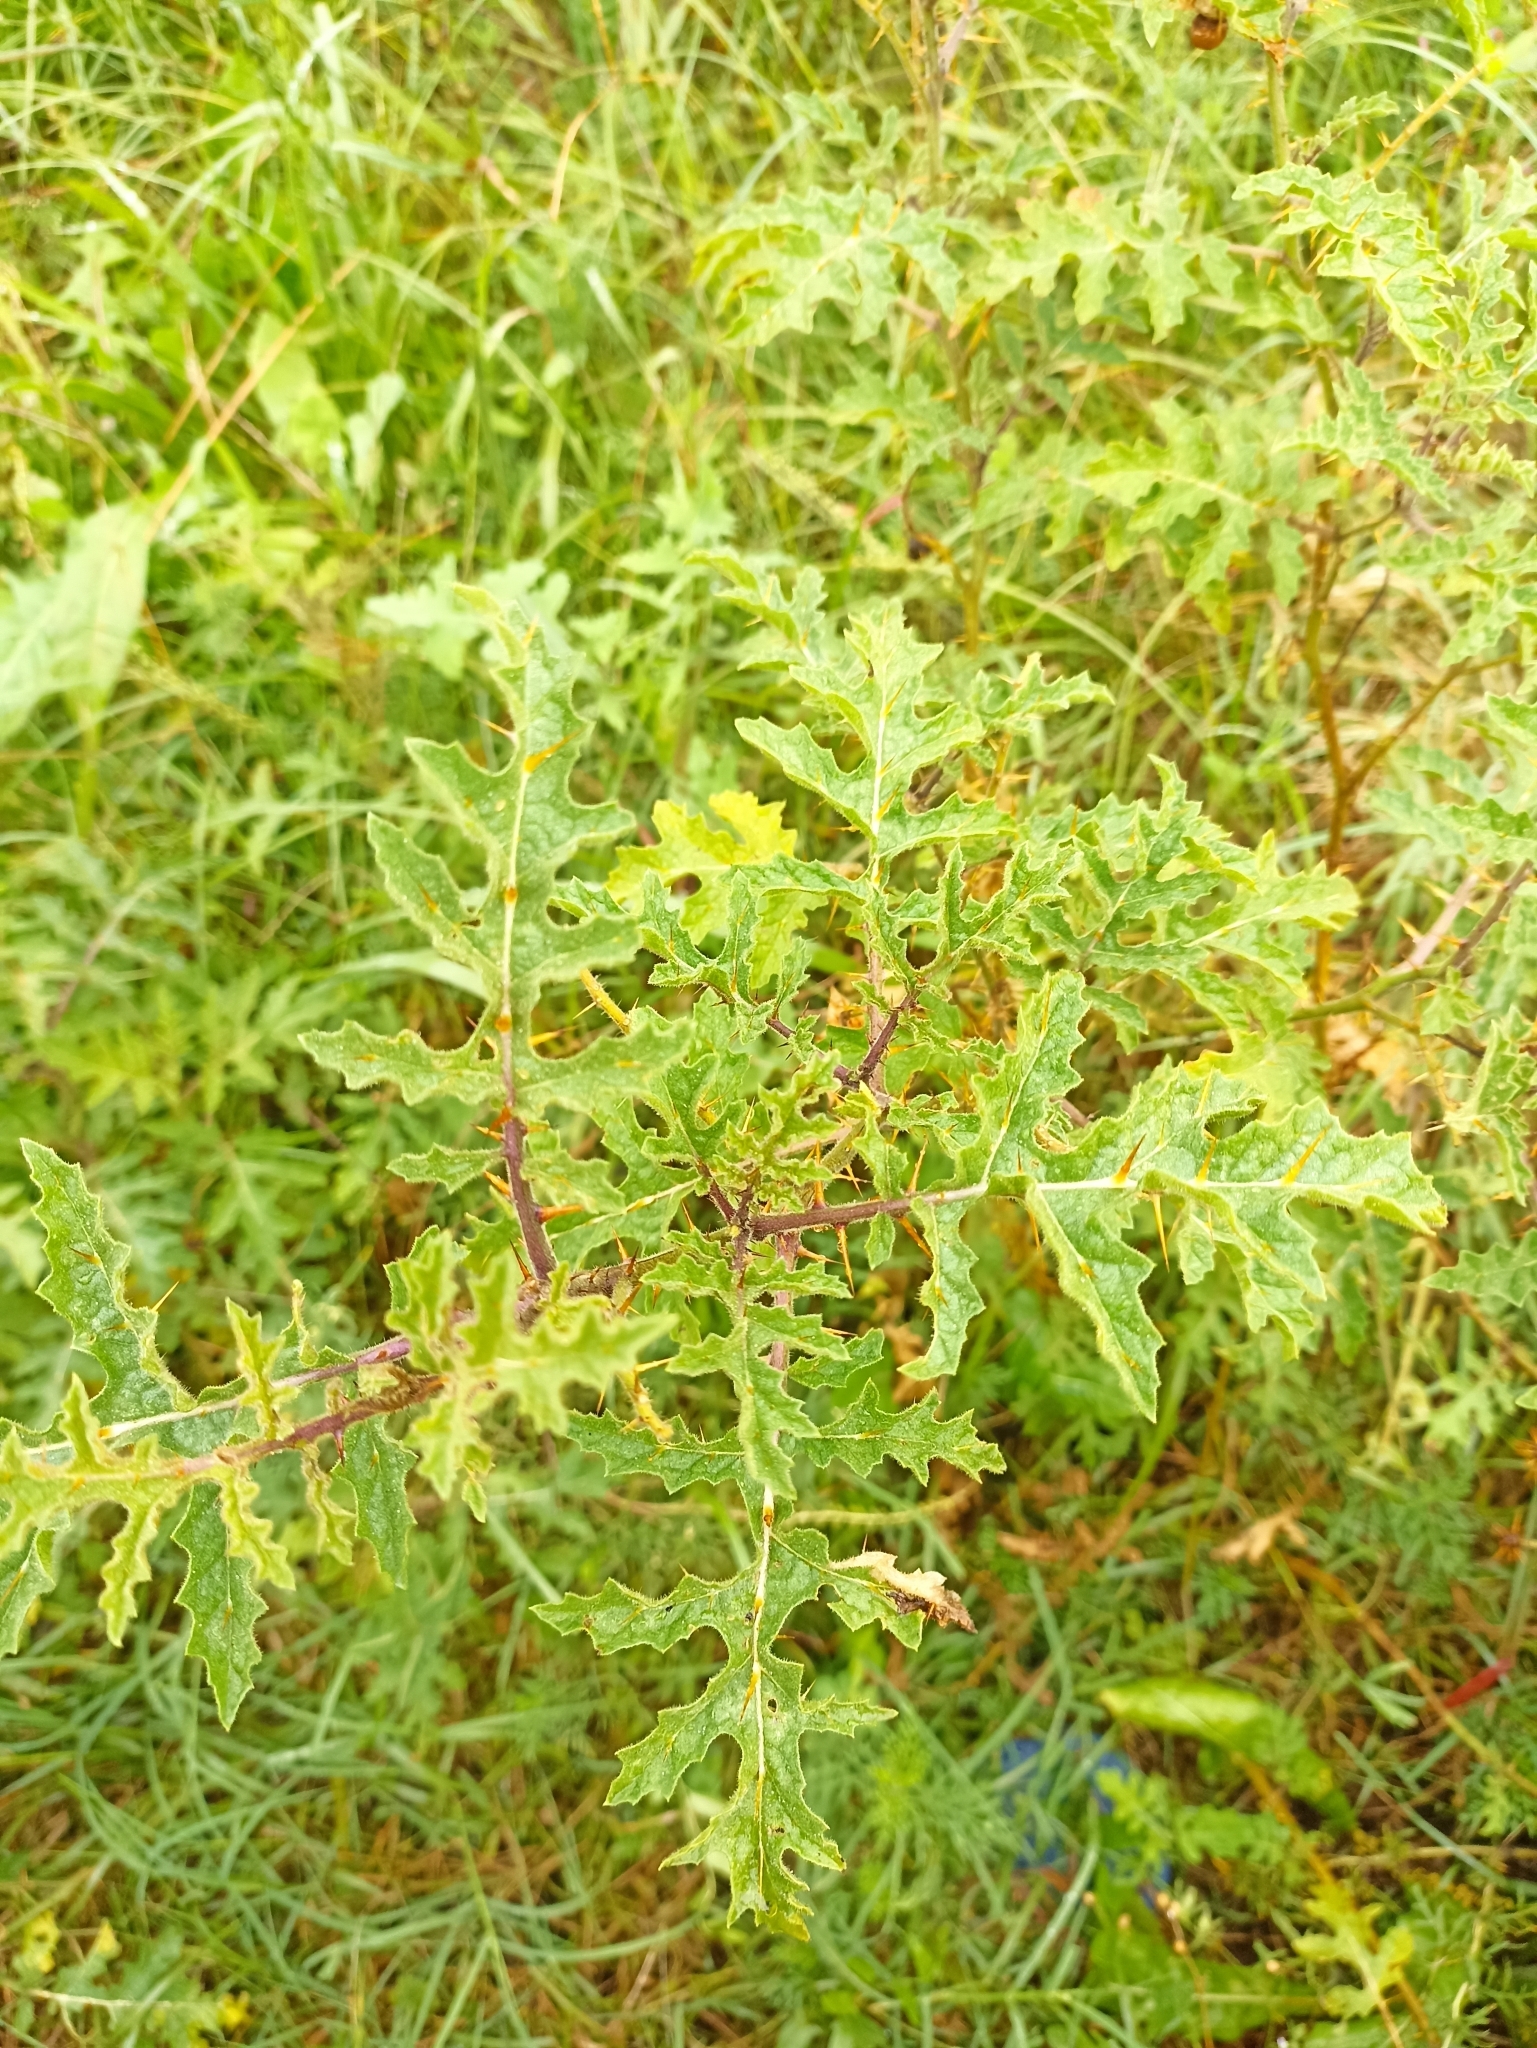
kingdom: Plantae
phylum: Tracheophyta
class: Magnoliopsida
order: Solanales
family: Solanaceae
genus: Solanum
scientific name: Solanum sisymbriifolium
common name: Red buffalo-bur
